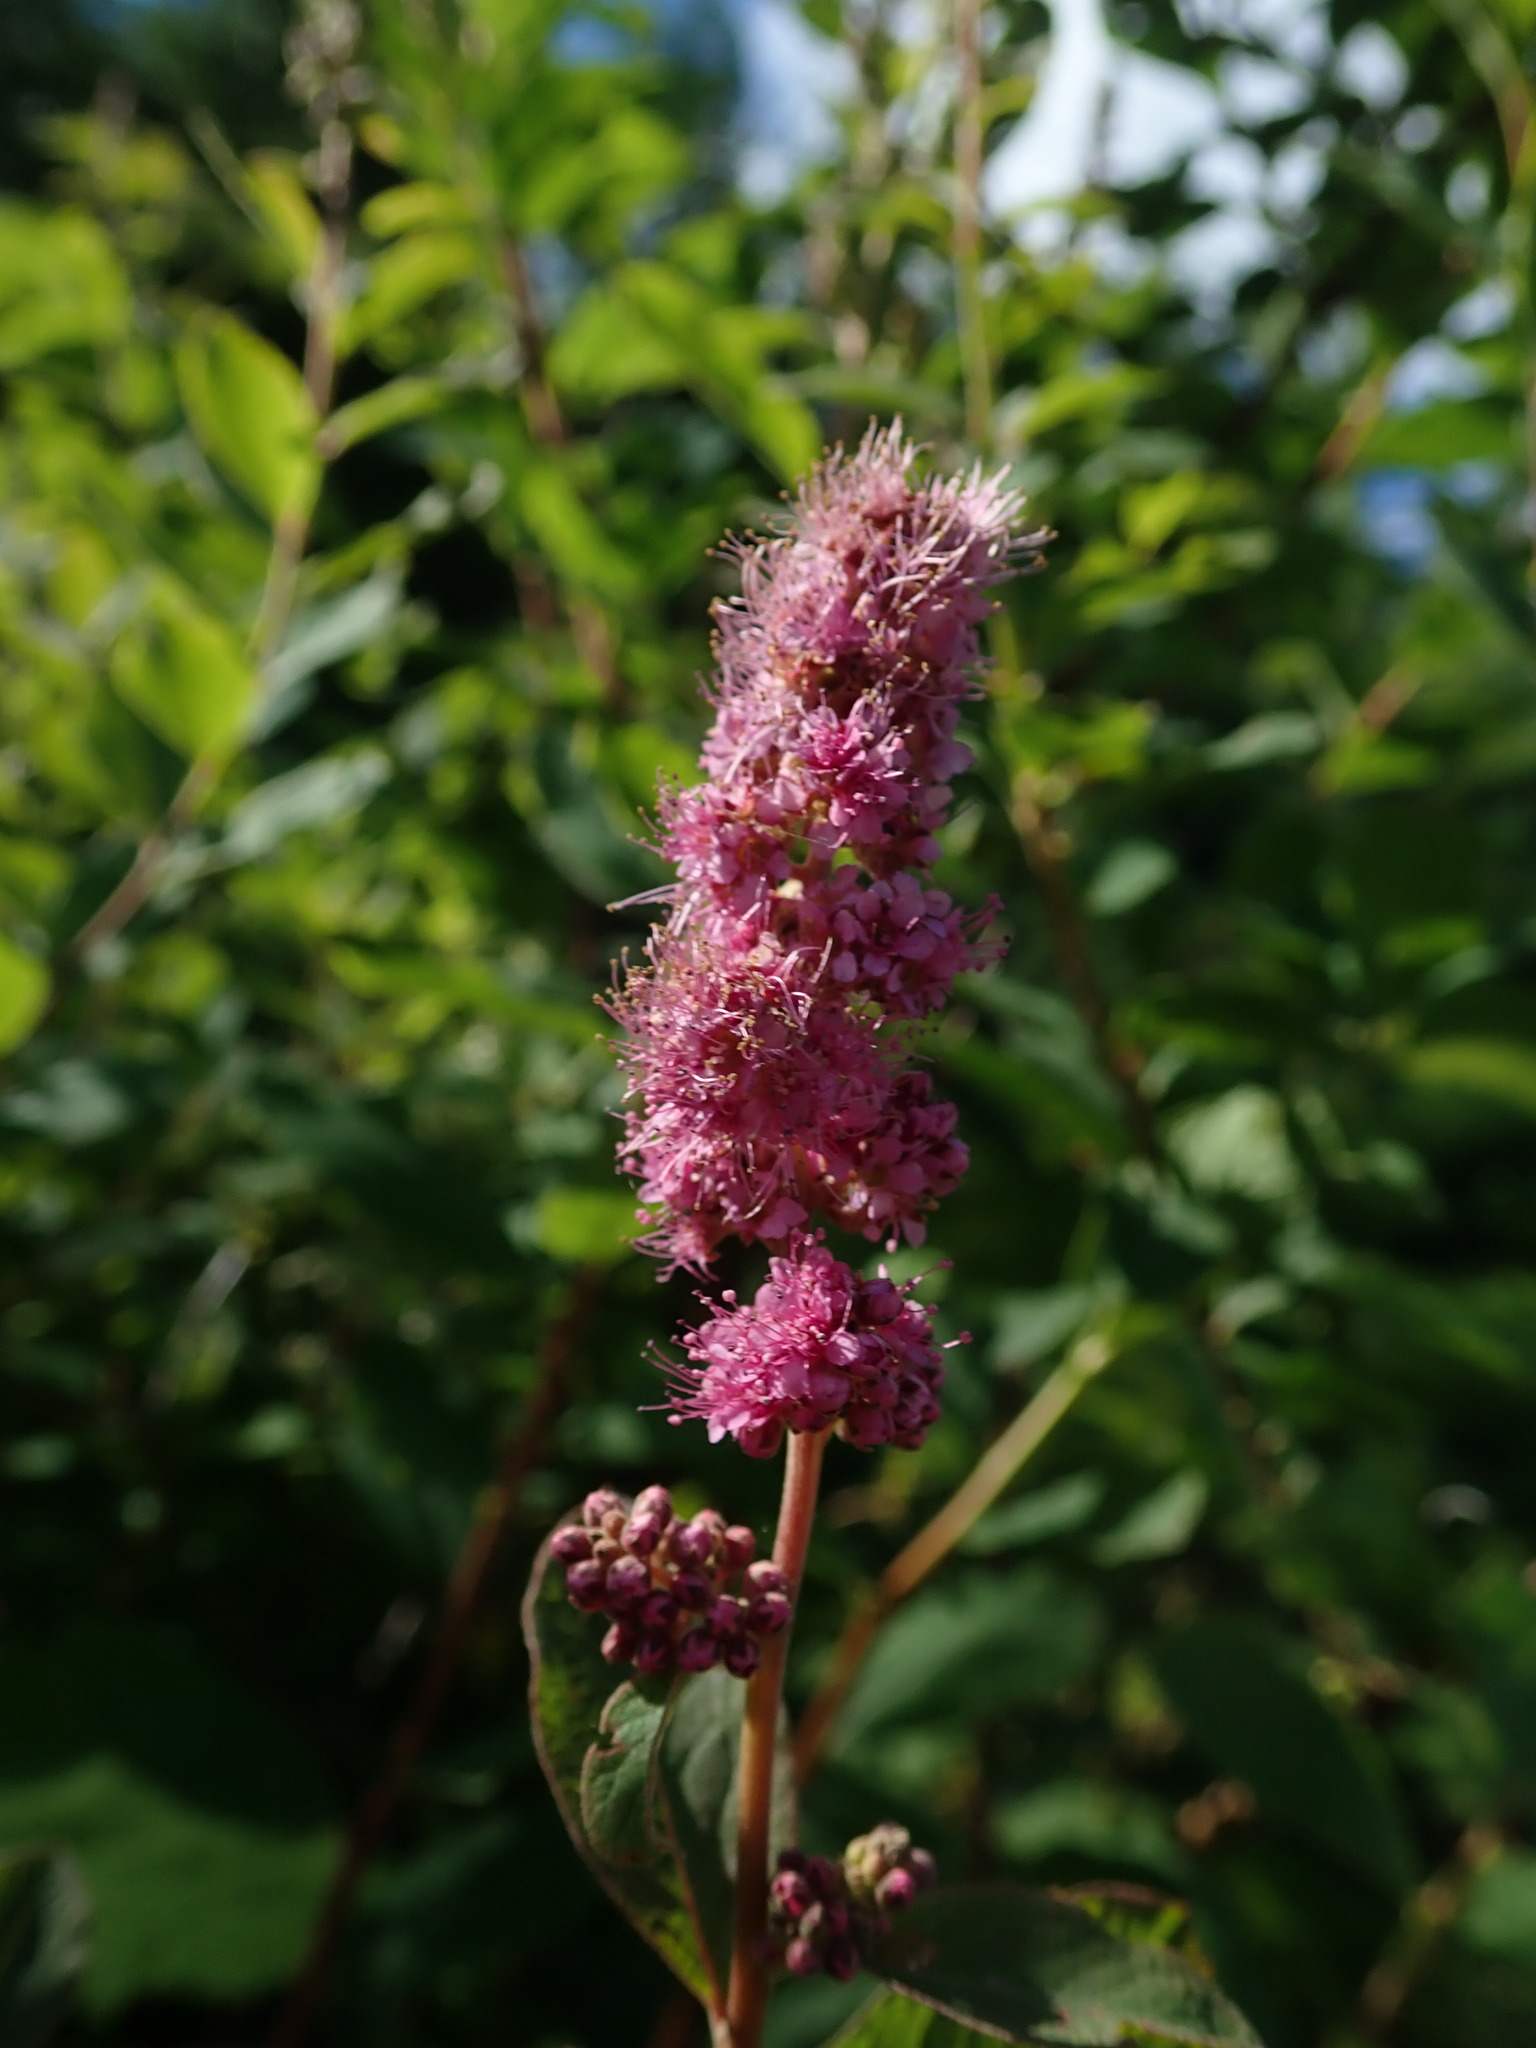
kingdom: Plantae
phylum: Tracheophyta
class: Magnoliopsida
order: Rosales
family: Rosaceae
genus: Spiraea
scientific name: Spiraea douglasii
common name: Steeplebush
